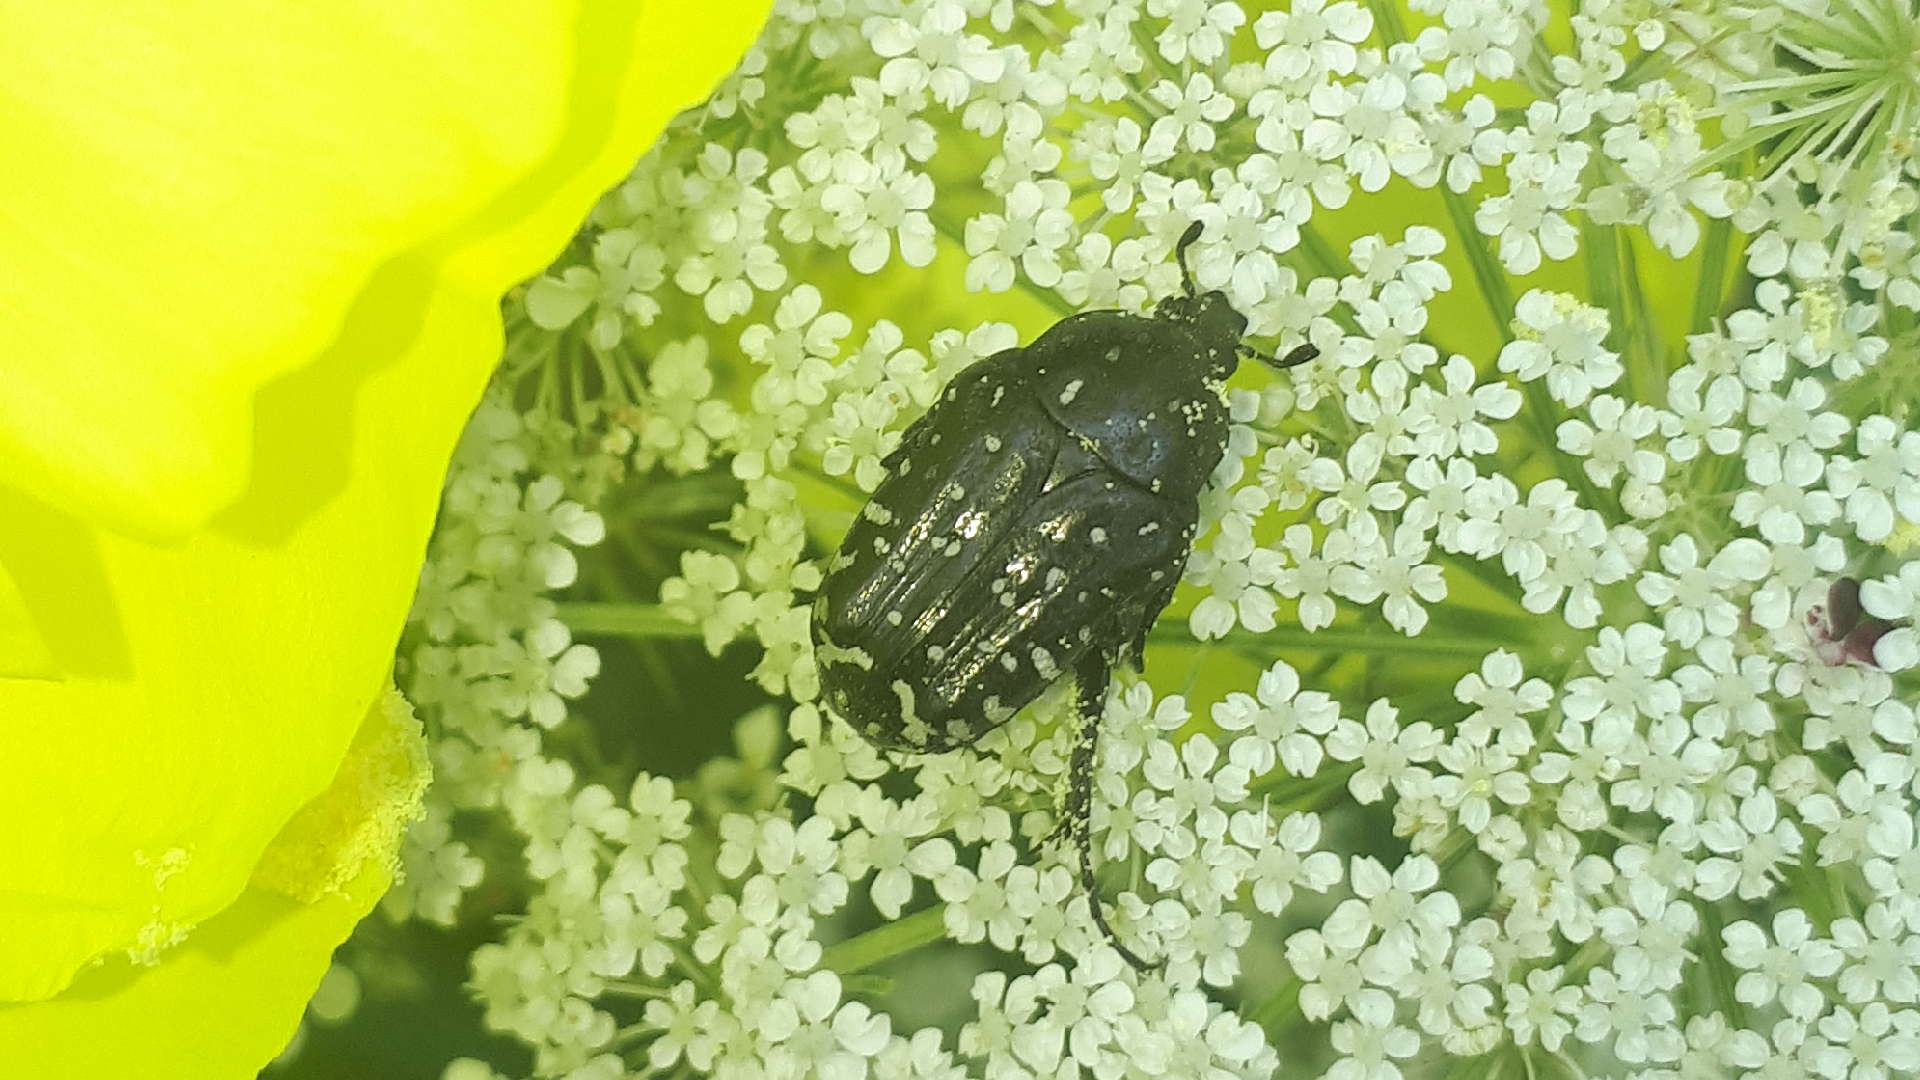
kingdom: Animalia
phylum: Arthropoda
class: Insecta
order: Coleoptera
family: Scarabaeidae
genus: Oxythyrea
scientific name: Oxythyrea funesta
